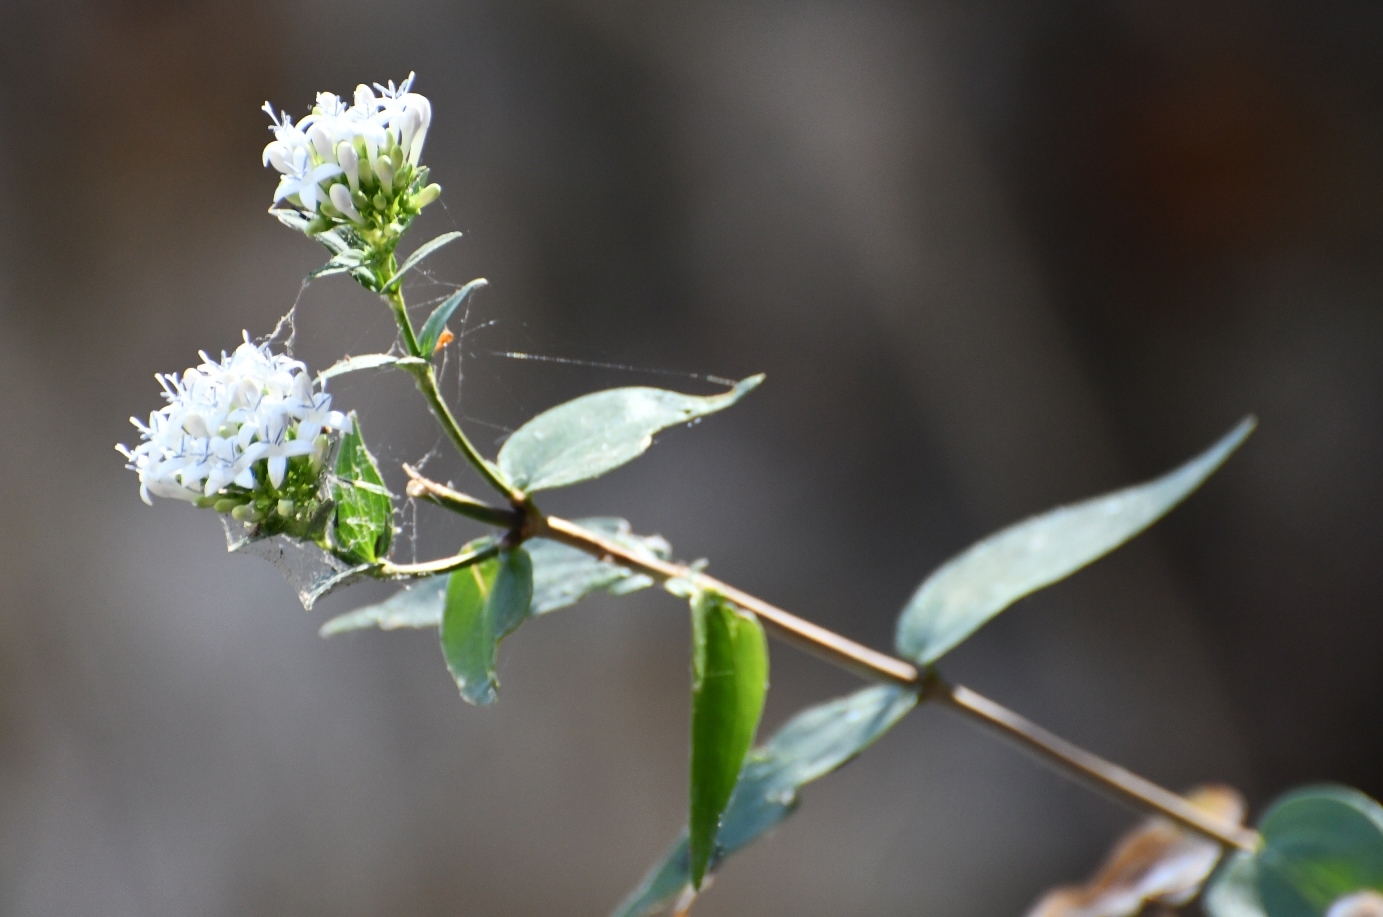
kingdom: Plantae
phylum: Tracheophyta
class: Magnoliopsida
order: Gentianales
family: Rubiaceae
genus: Bouvardia
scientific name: Bouvardia quinquenervata
